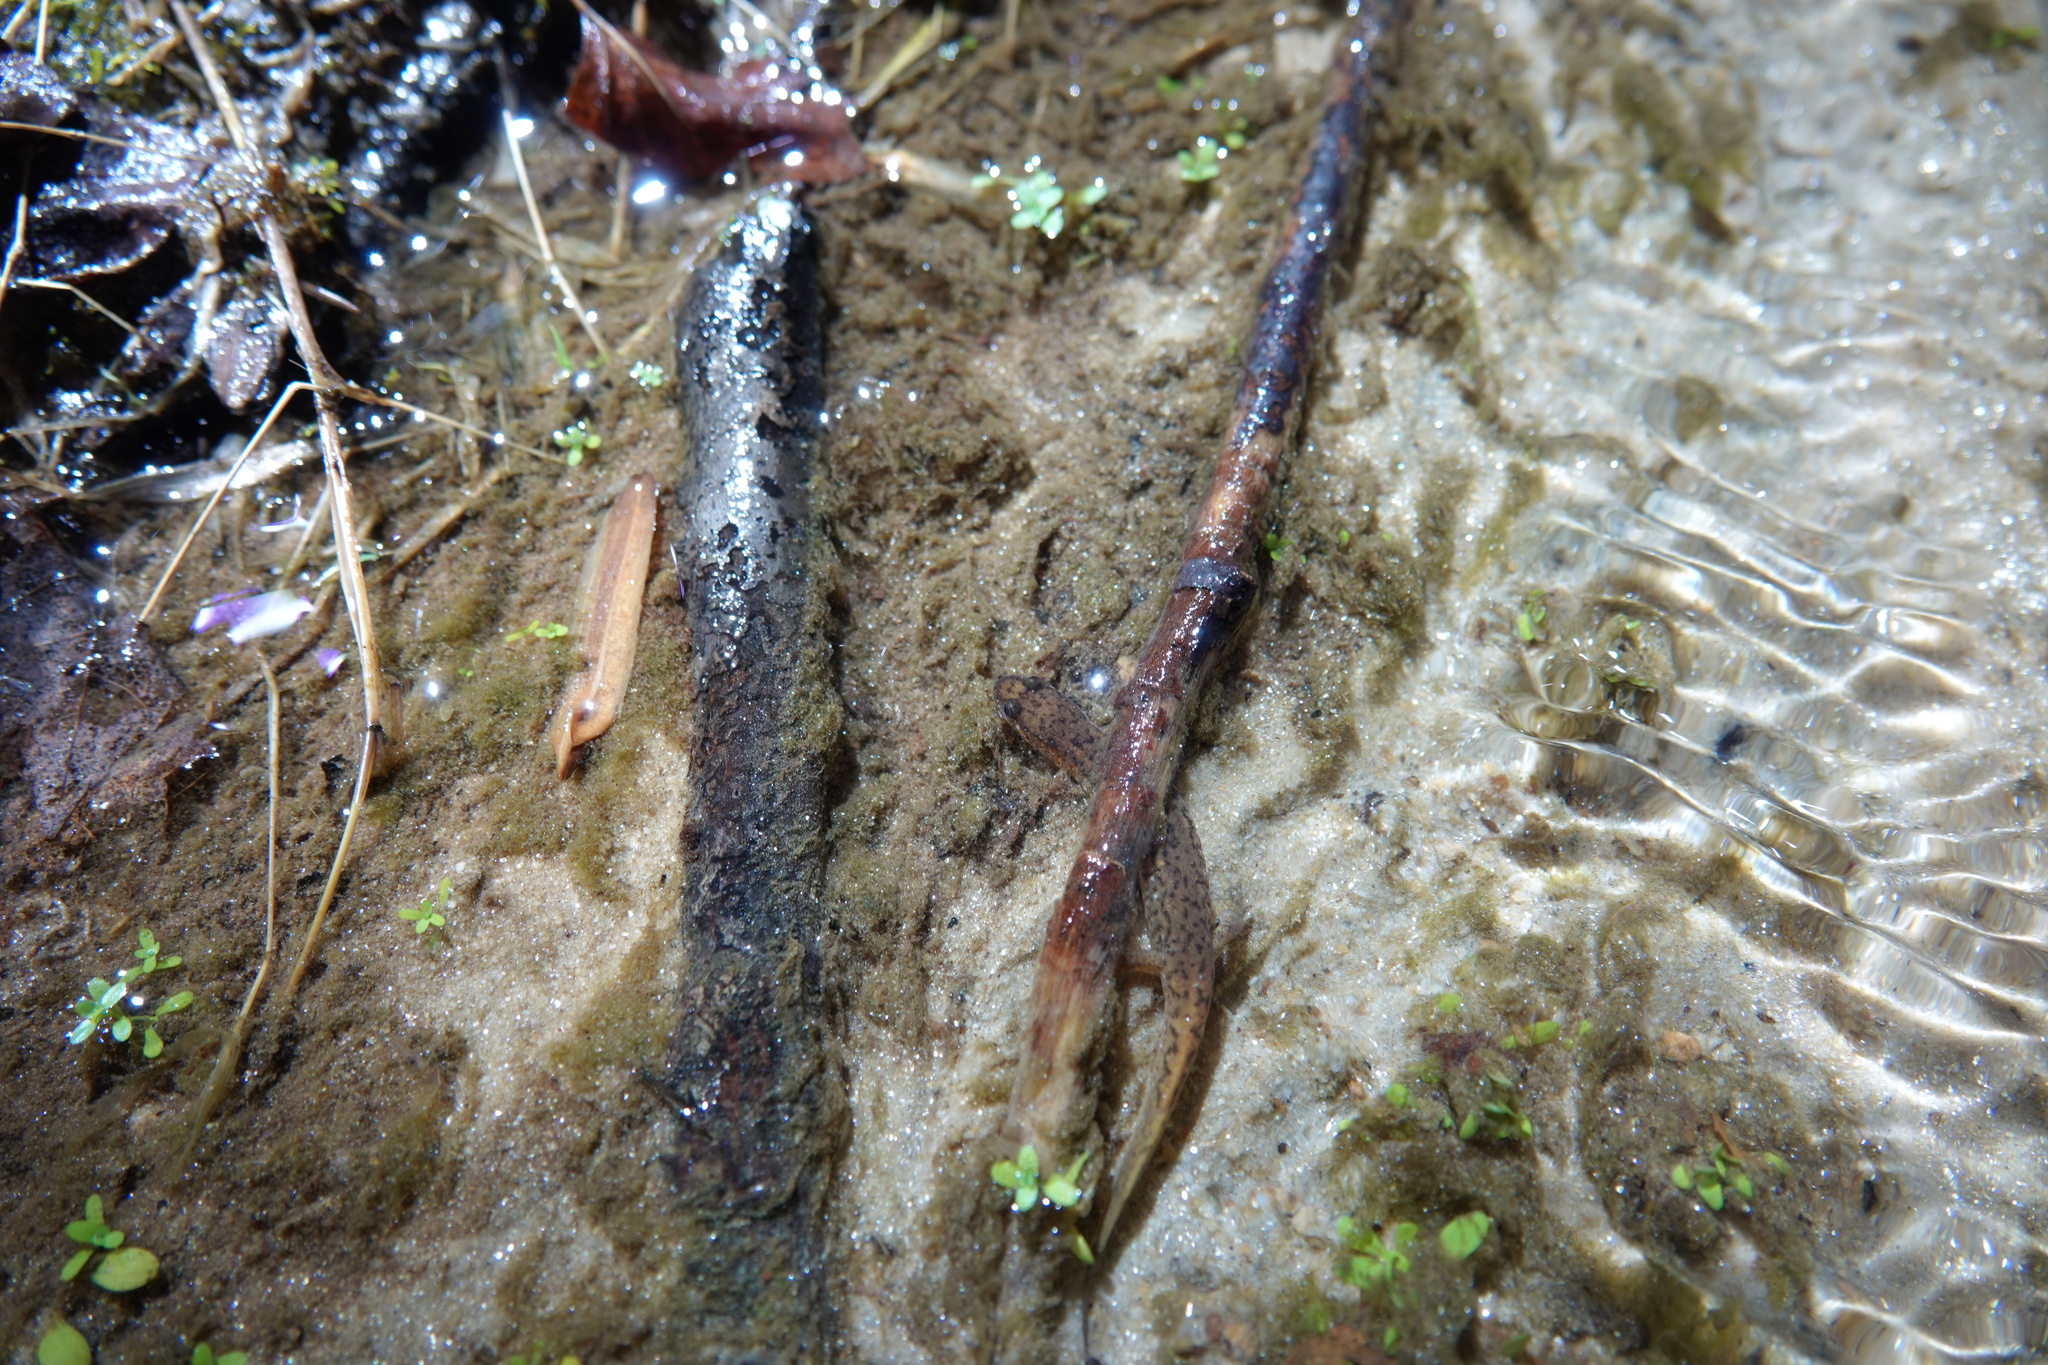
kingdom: Animalia
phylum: Chordata
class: Amphibia
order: Caudata
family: Plethodontidae
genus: Desmognathus
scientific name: Desmognathus fuscus
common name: Northern dusky salamander
